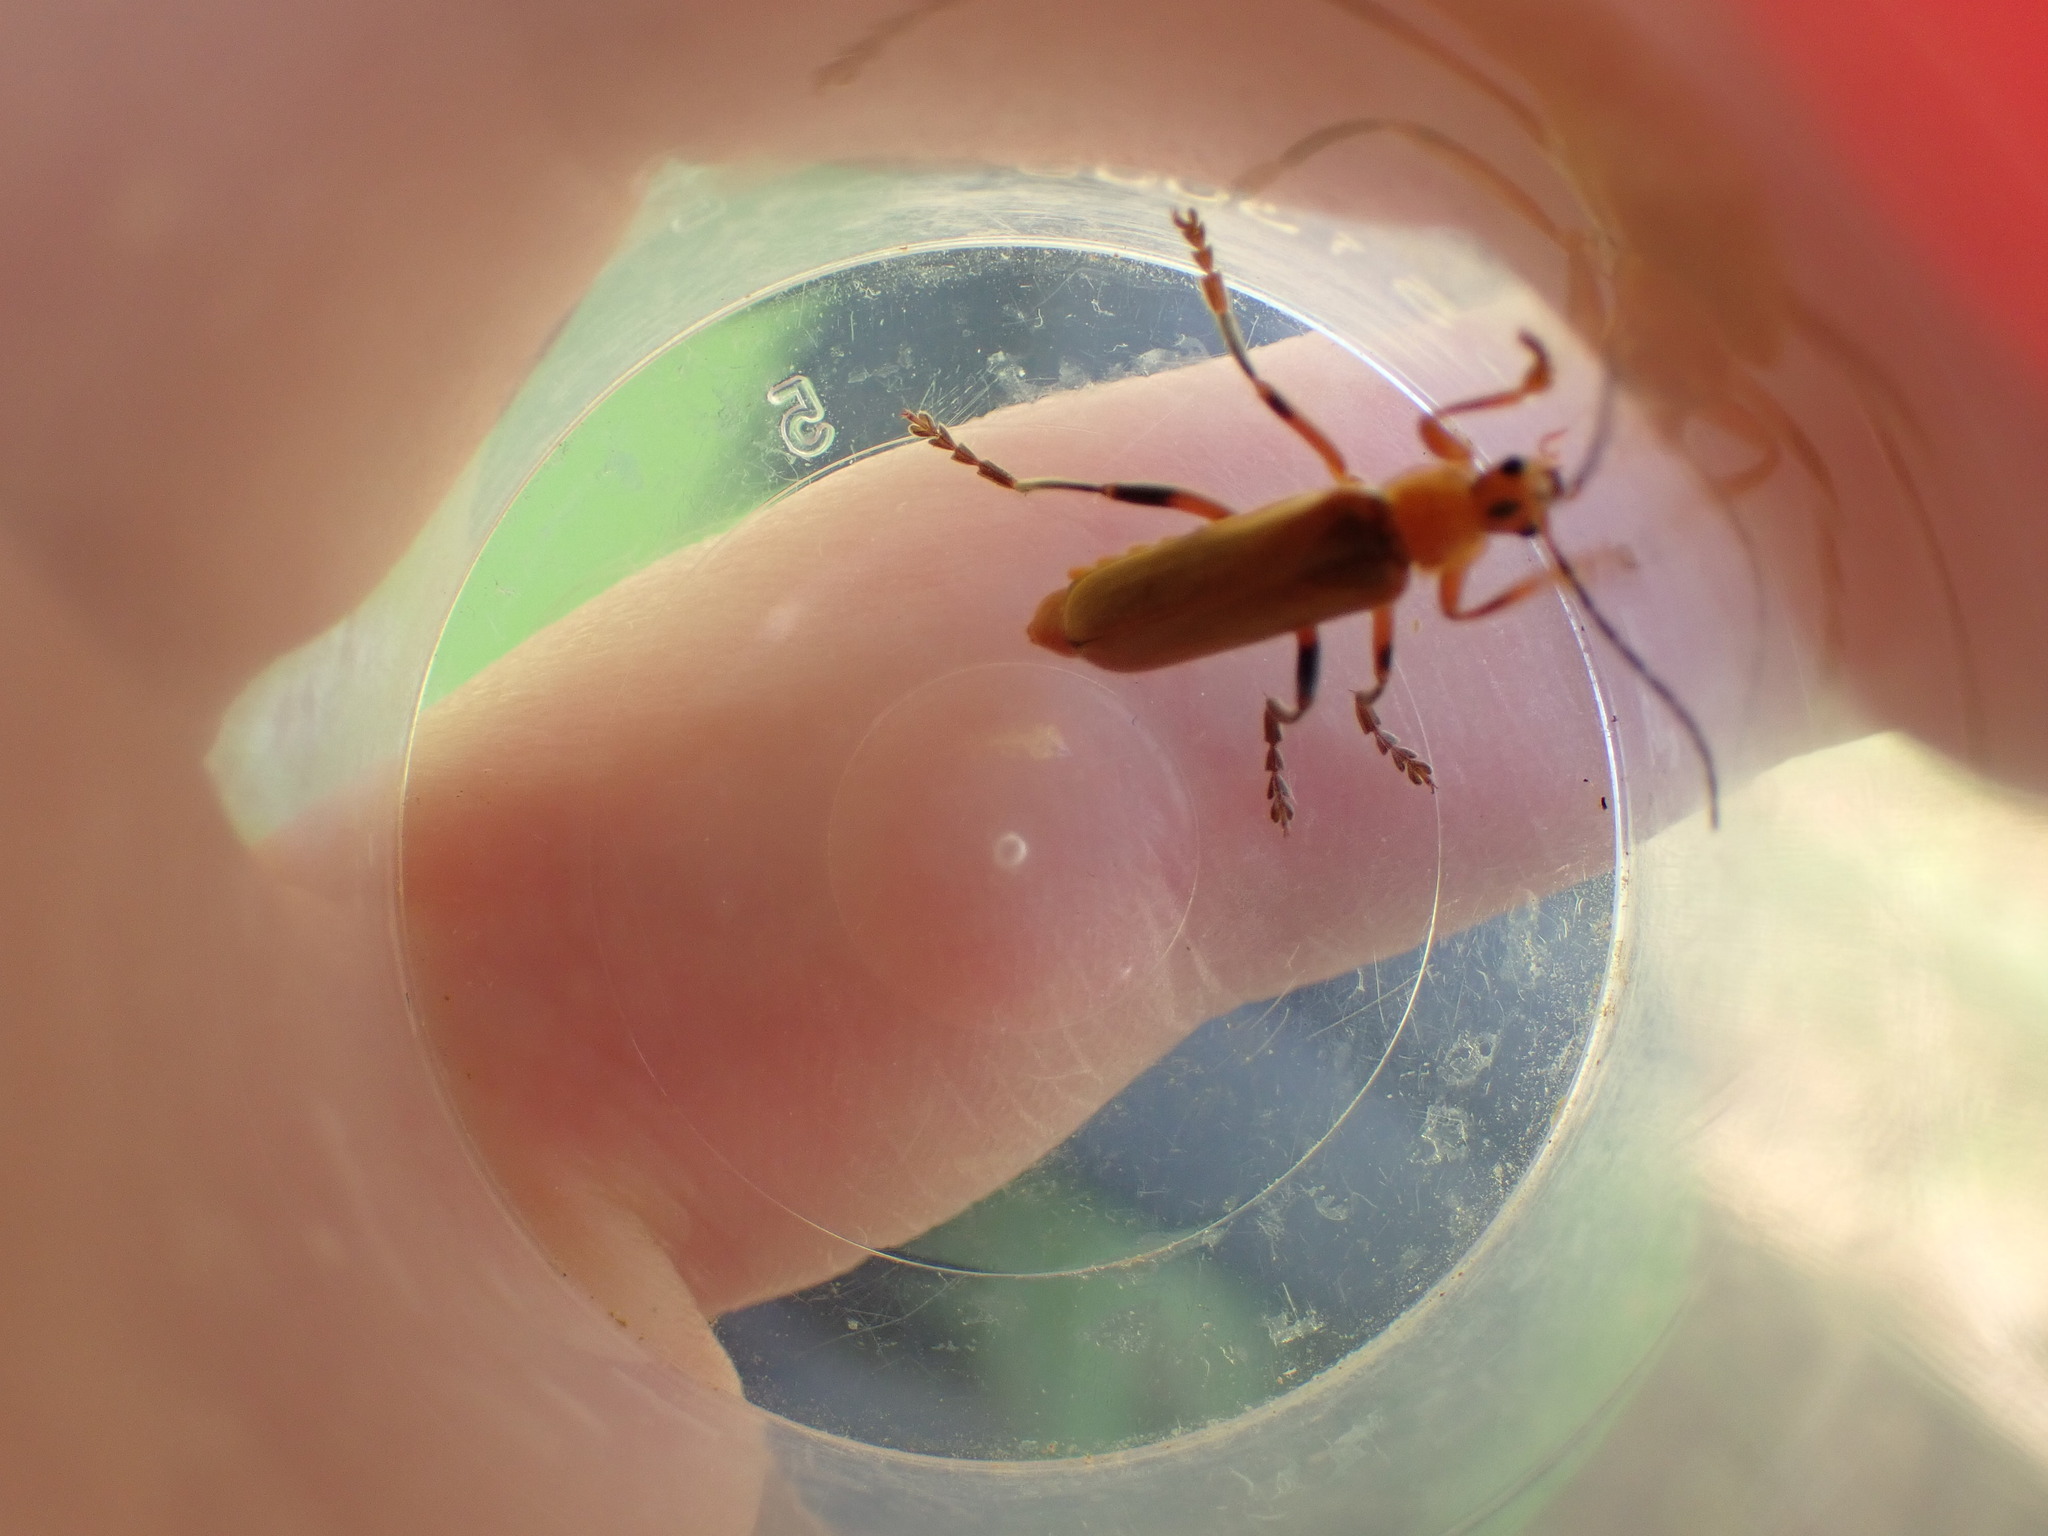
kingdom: Animalia
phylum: Arthropoda
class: Insecta
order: Coleoptera
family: Cantharidae
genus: Cantharis
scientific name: Cantharis livida
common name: Livid soldier beetle
